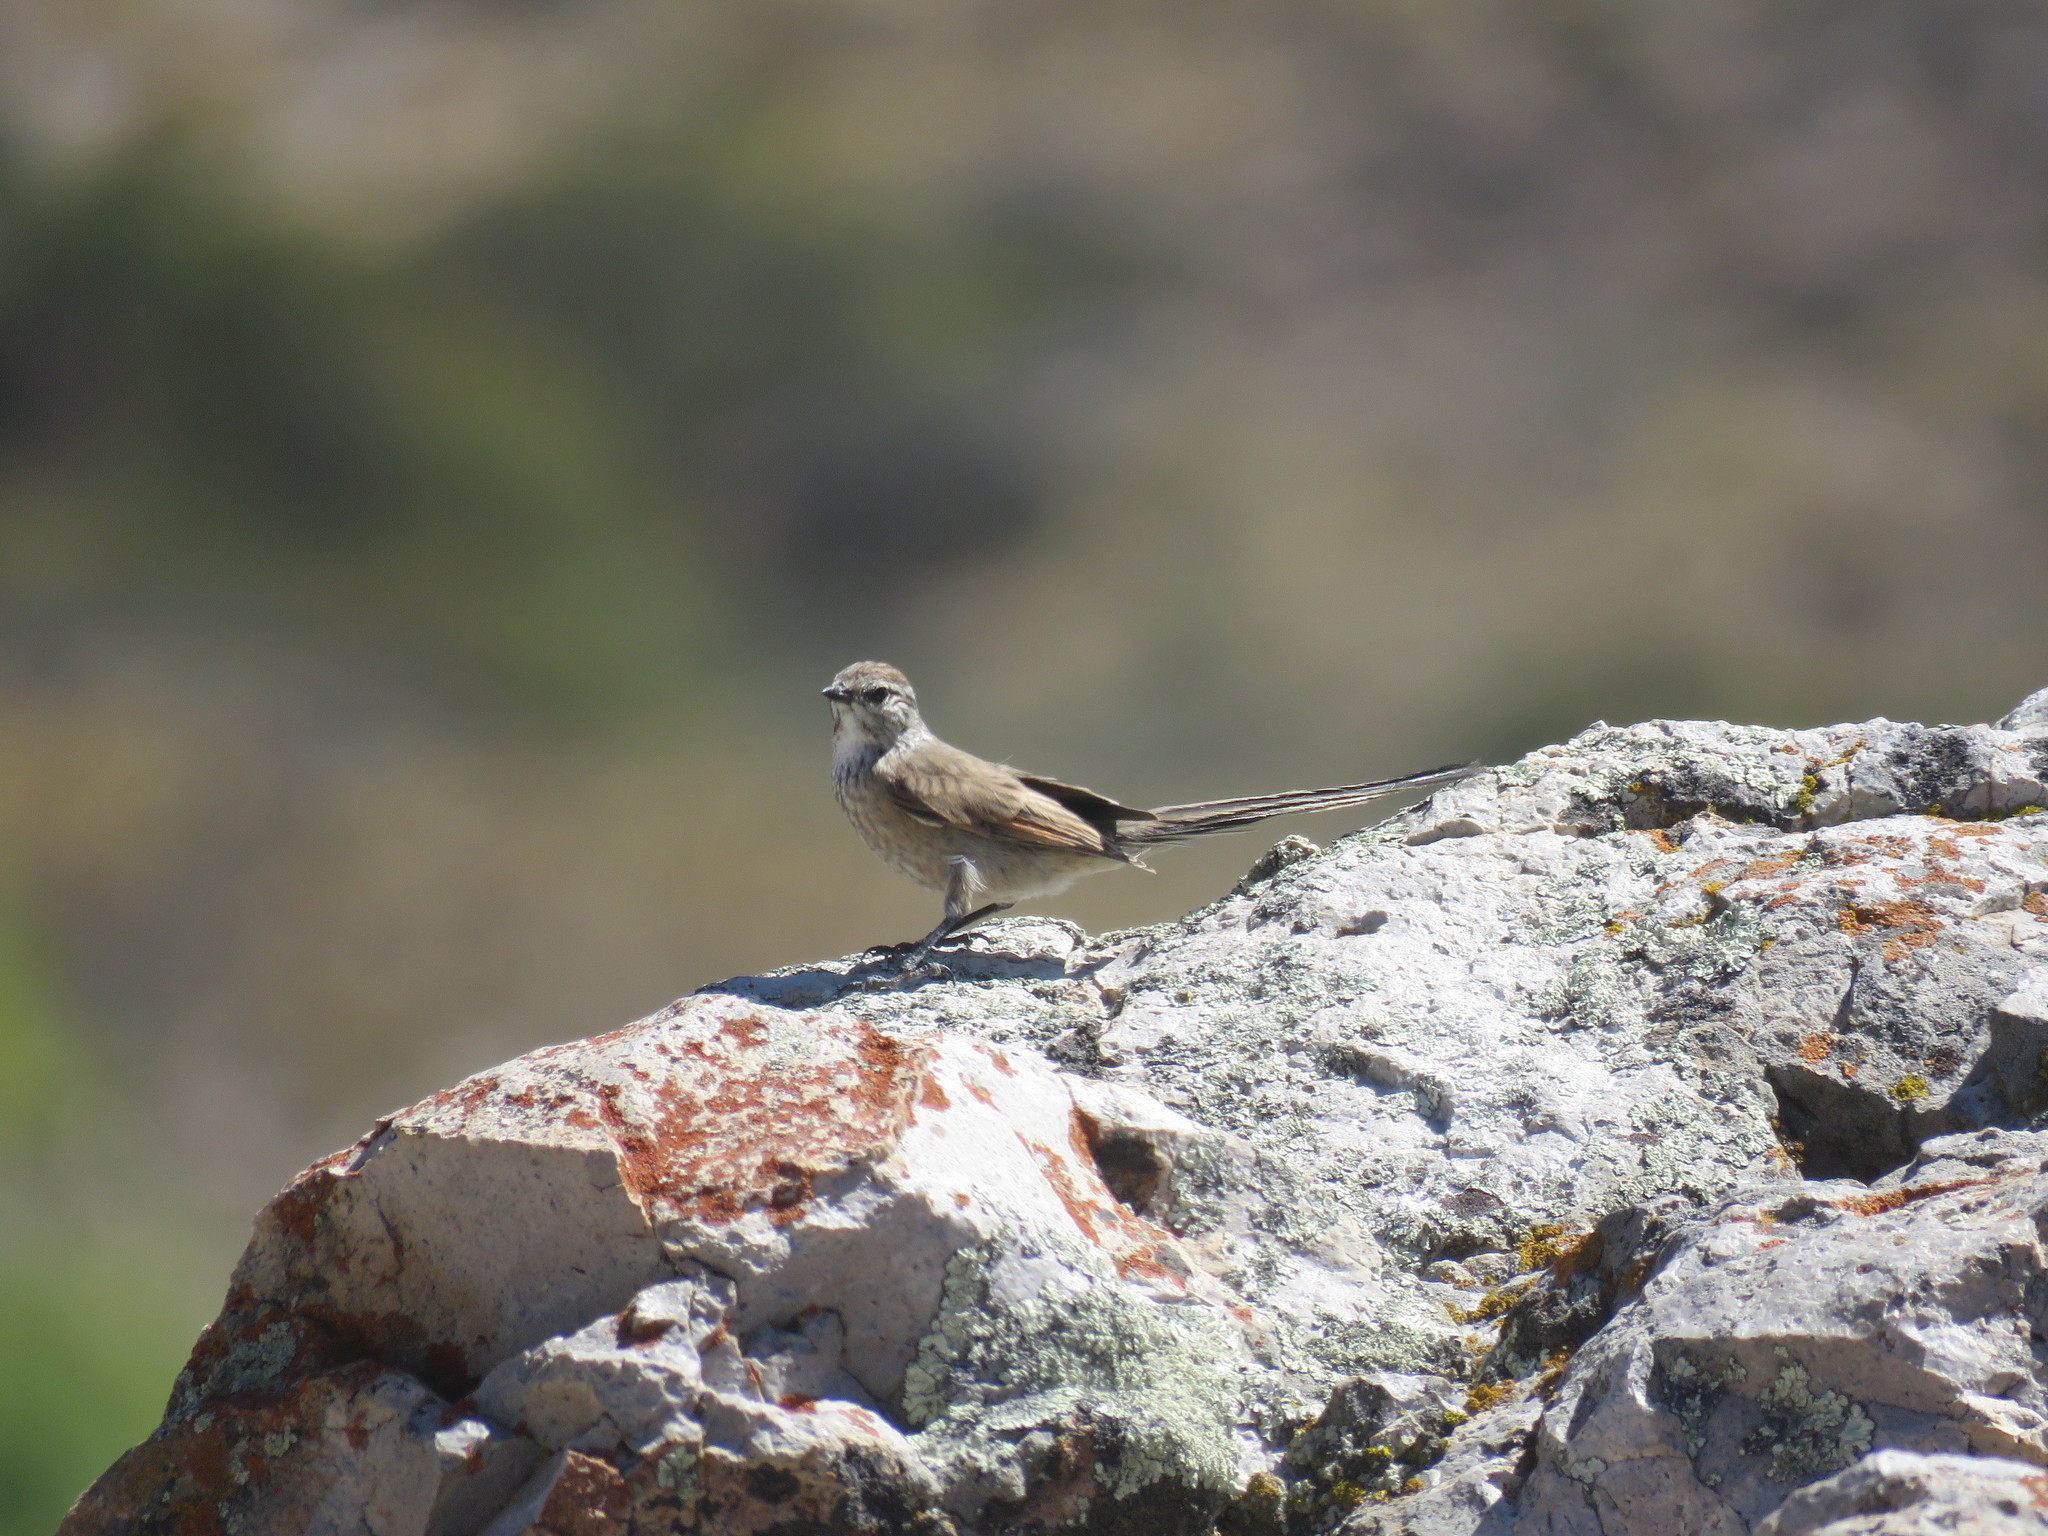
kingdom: Animalia
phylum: Chordata
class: Aves
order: Passeriformes
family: Furnariidae
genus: Leptasthenura
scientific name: Leptasthenura aegithaloides
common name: Plain-mantled tit-spinetail
